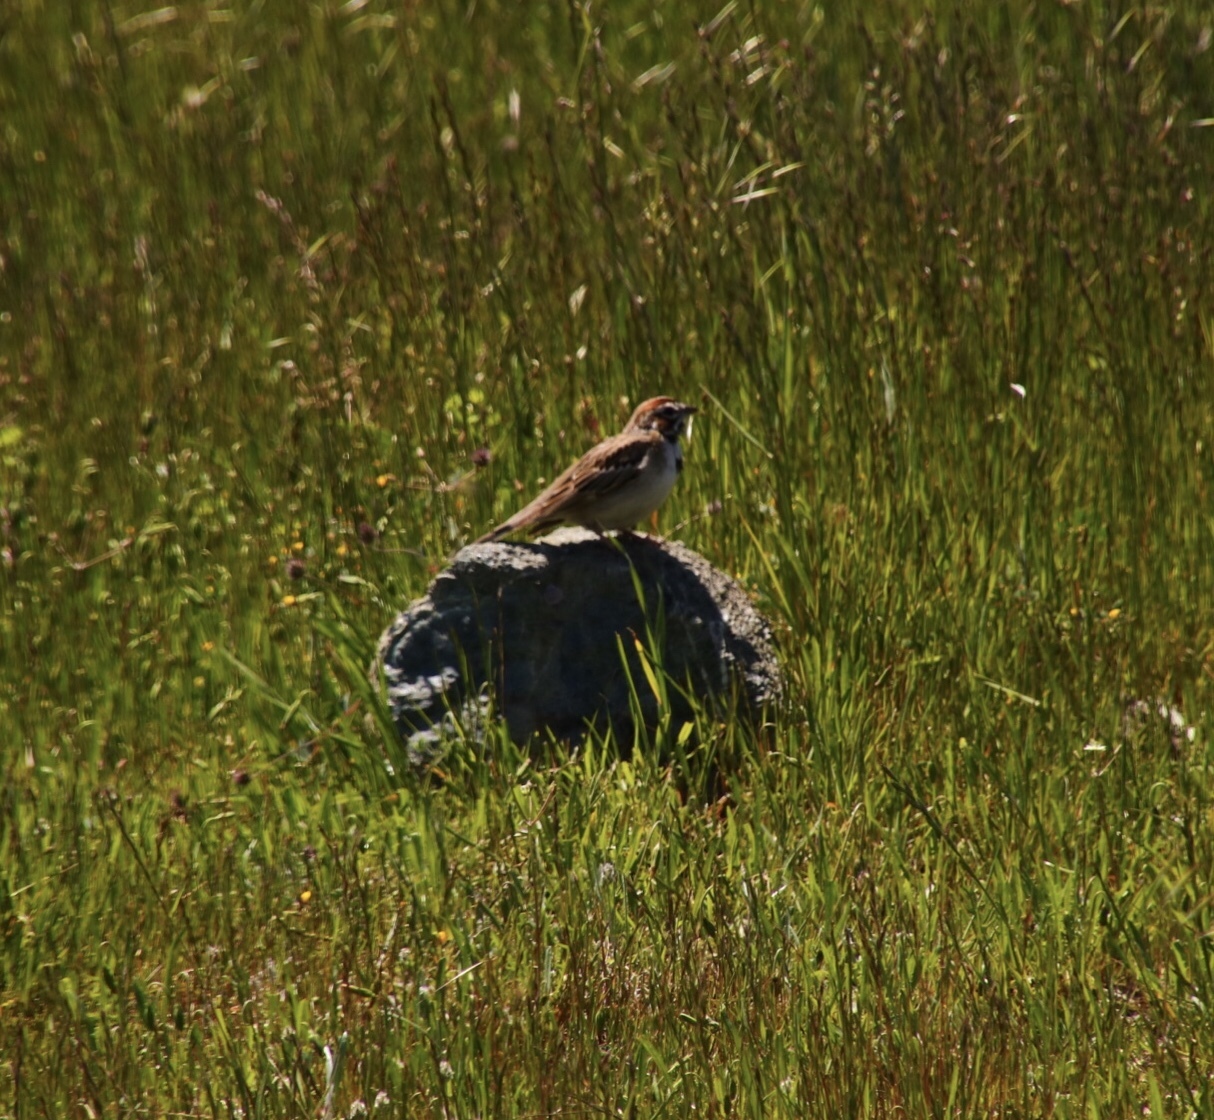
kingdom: Animalia
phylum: Chordata
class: Aves
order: Passeriformes
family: Passerellidae
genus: Chondestes
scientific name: Chondestes grammacus
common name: Lark sparrow
